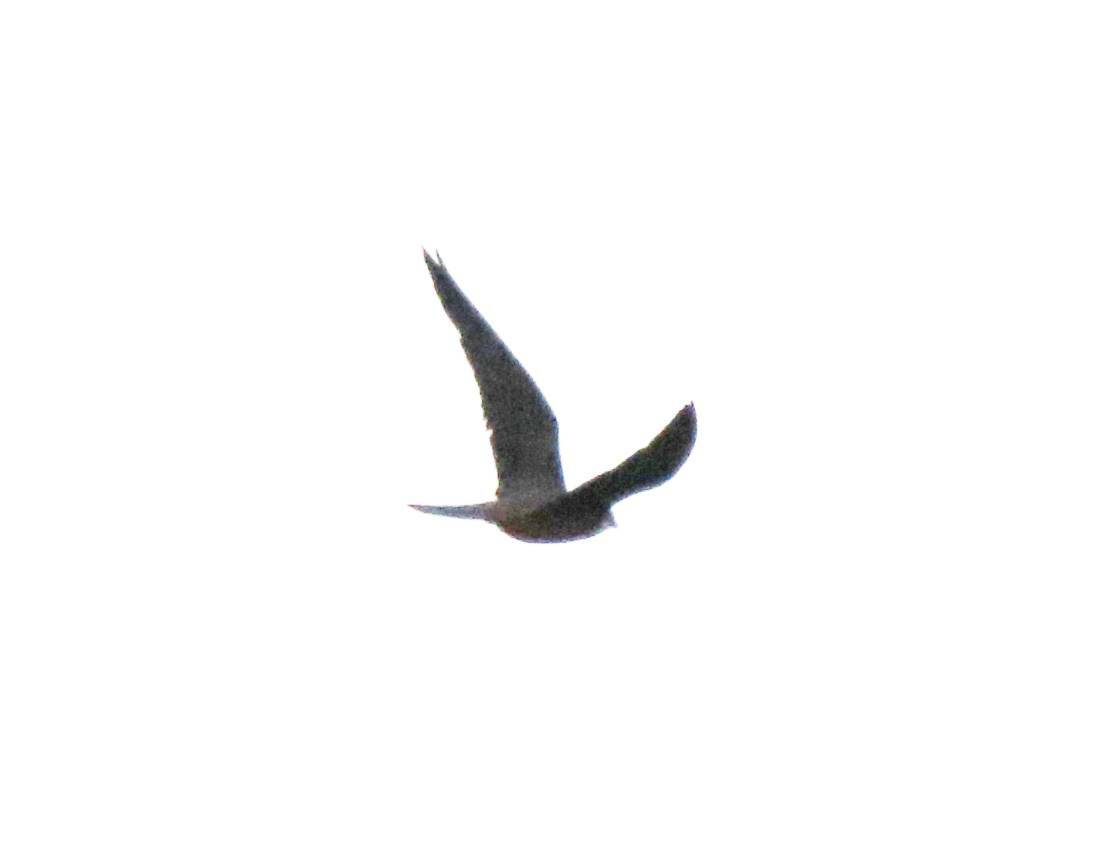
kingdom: Animalia
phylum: Chordata
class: Aves
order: Falconiformes
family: Falconidae
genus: Falco
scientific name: Falco eleonorae
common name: Eleonora's falcon
